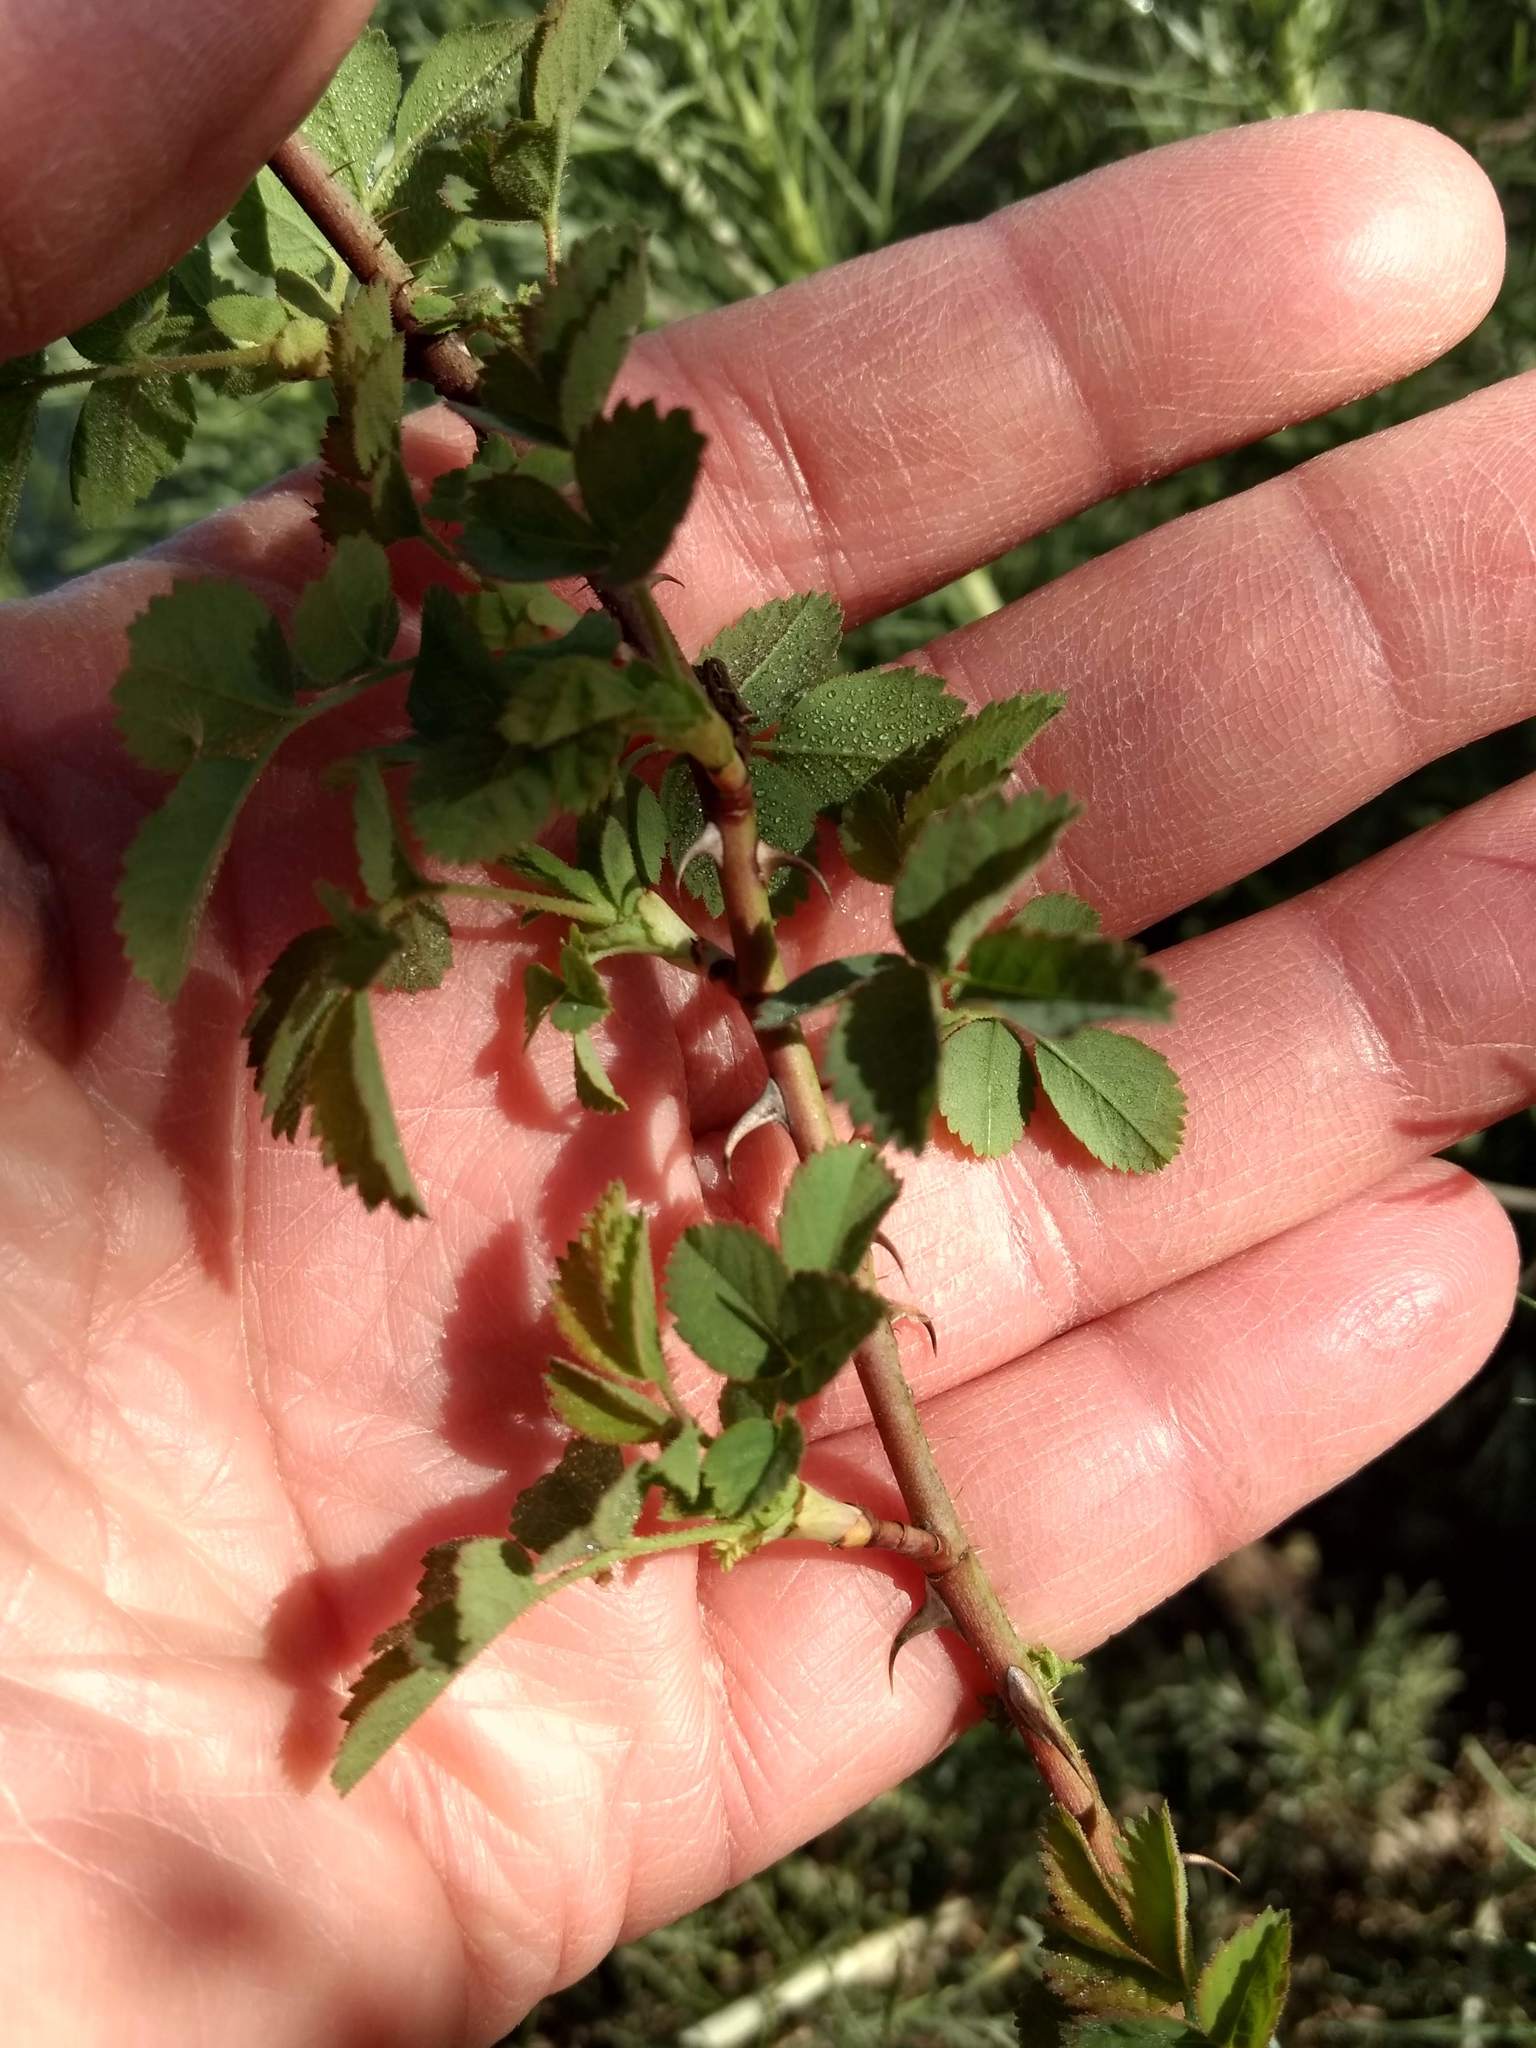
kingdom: Plantae
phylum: Tracheophyta
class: Magnoliopsida
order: Rosales
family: Rosaceae
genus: Rosa
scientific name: Rosa californica
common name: California rose
